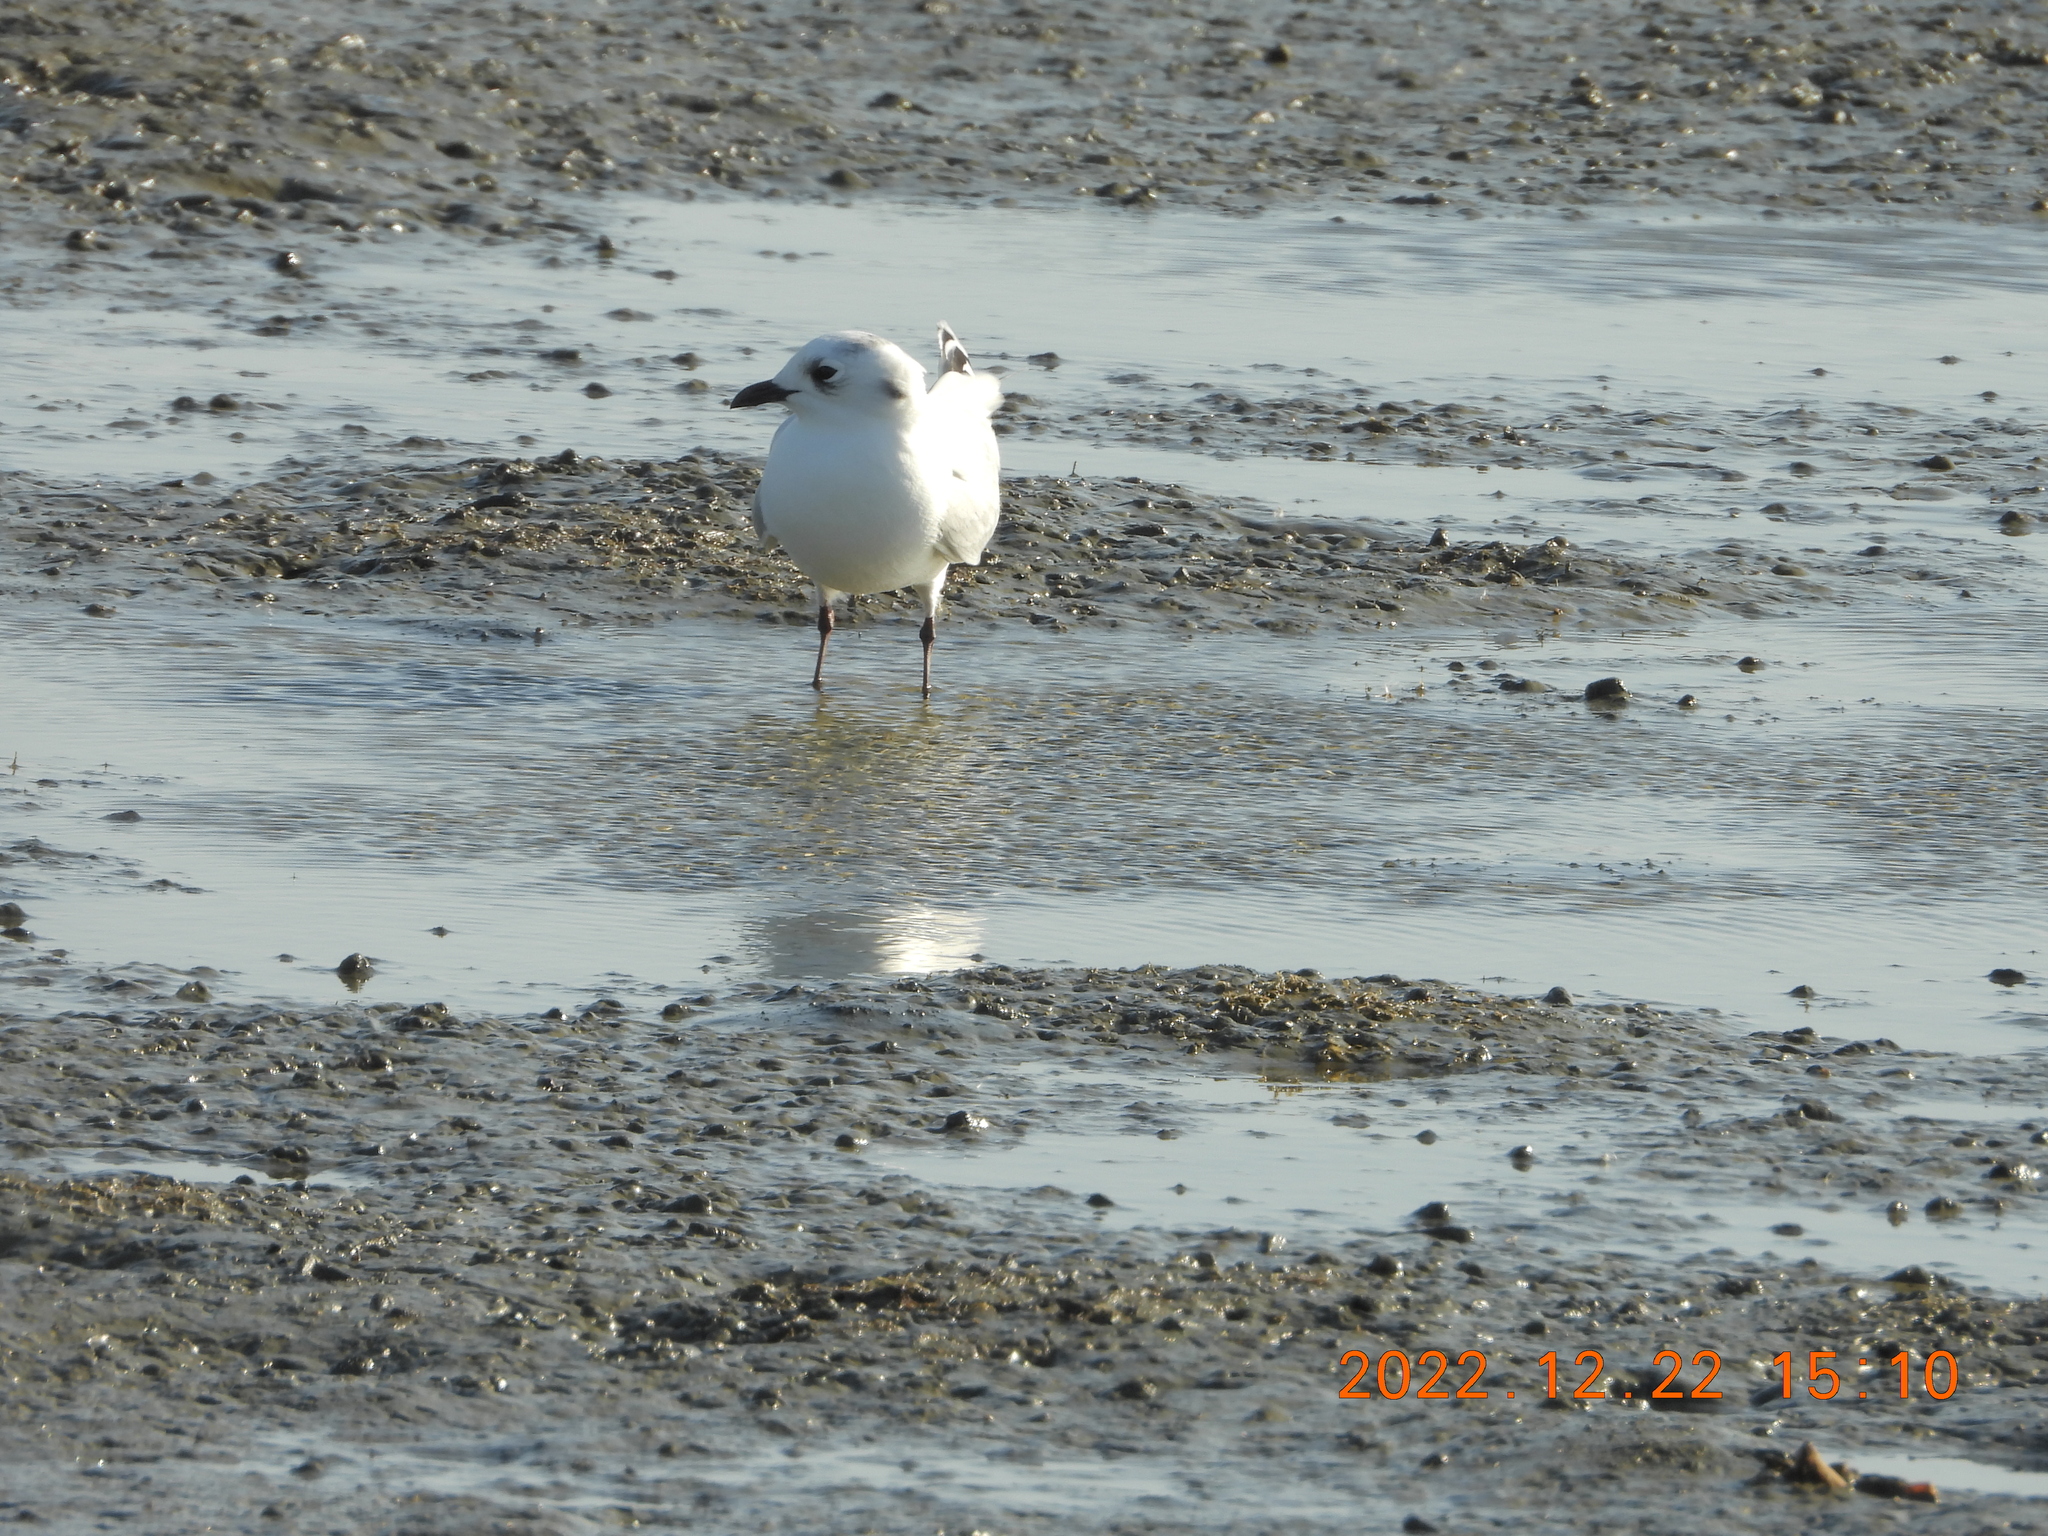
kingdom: Animalia
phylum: Chordata
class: Aves
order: Charadriiformes
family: Laridae
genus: Chroicocephalus
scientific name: Chroicocephalus saundersi
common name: Saunders's gull
